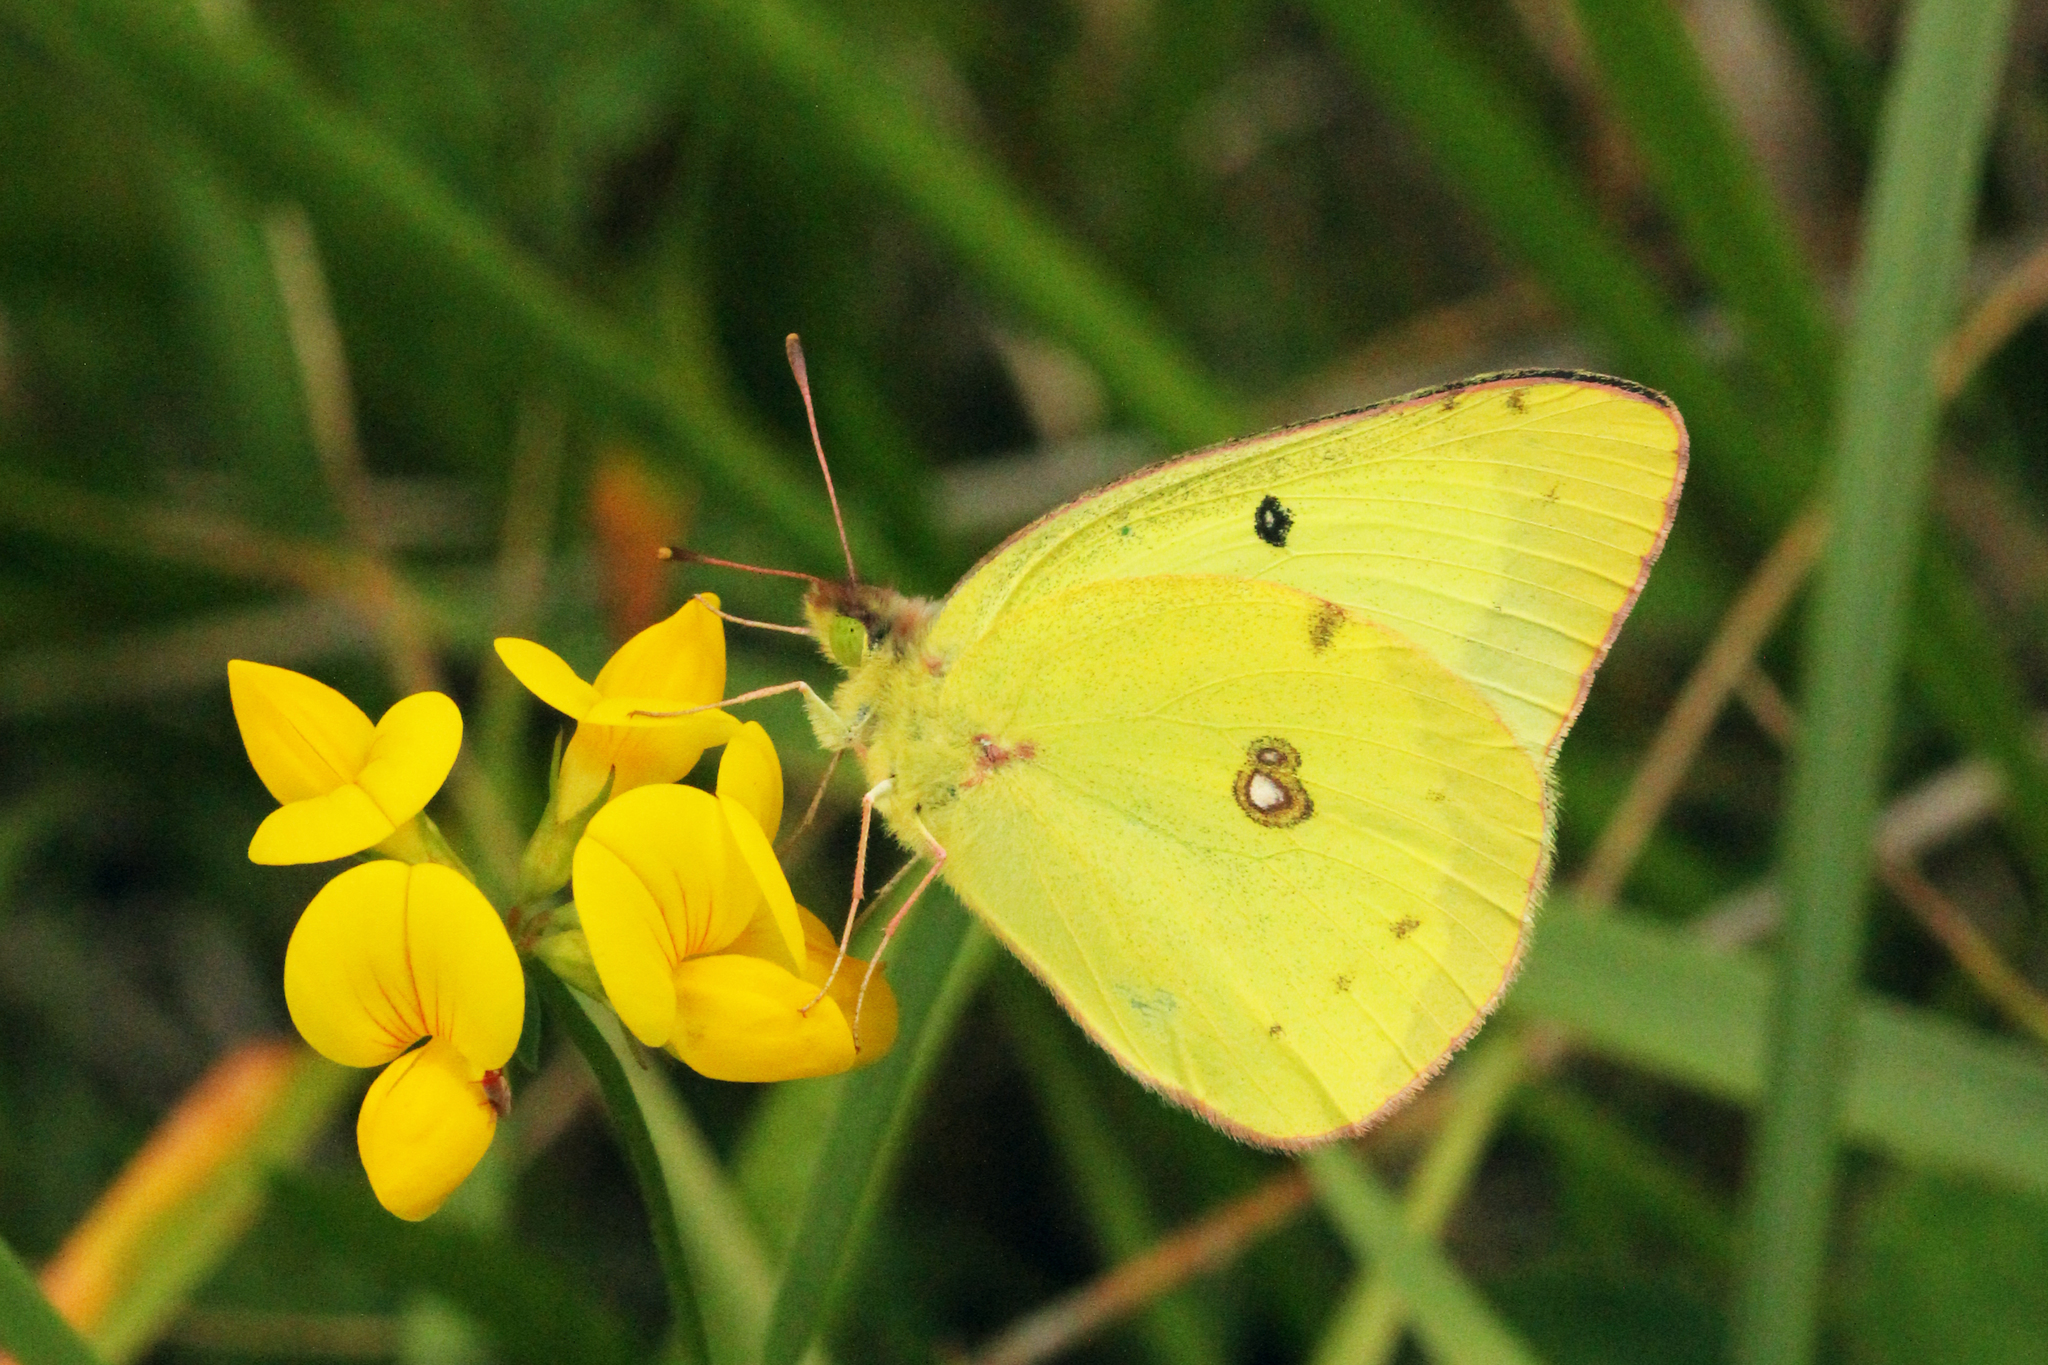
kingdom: Animalia
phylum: Arthropoda
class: Insecta
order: Lepidoptera
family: Pieridae
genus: Colias
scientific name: Colias philodice
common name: Clouded sulphur
